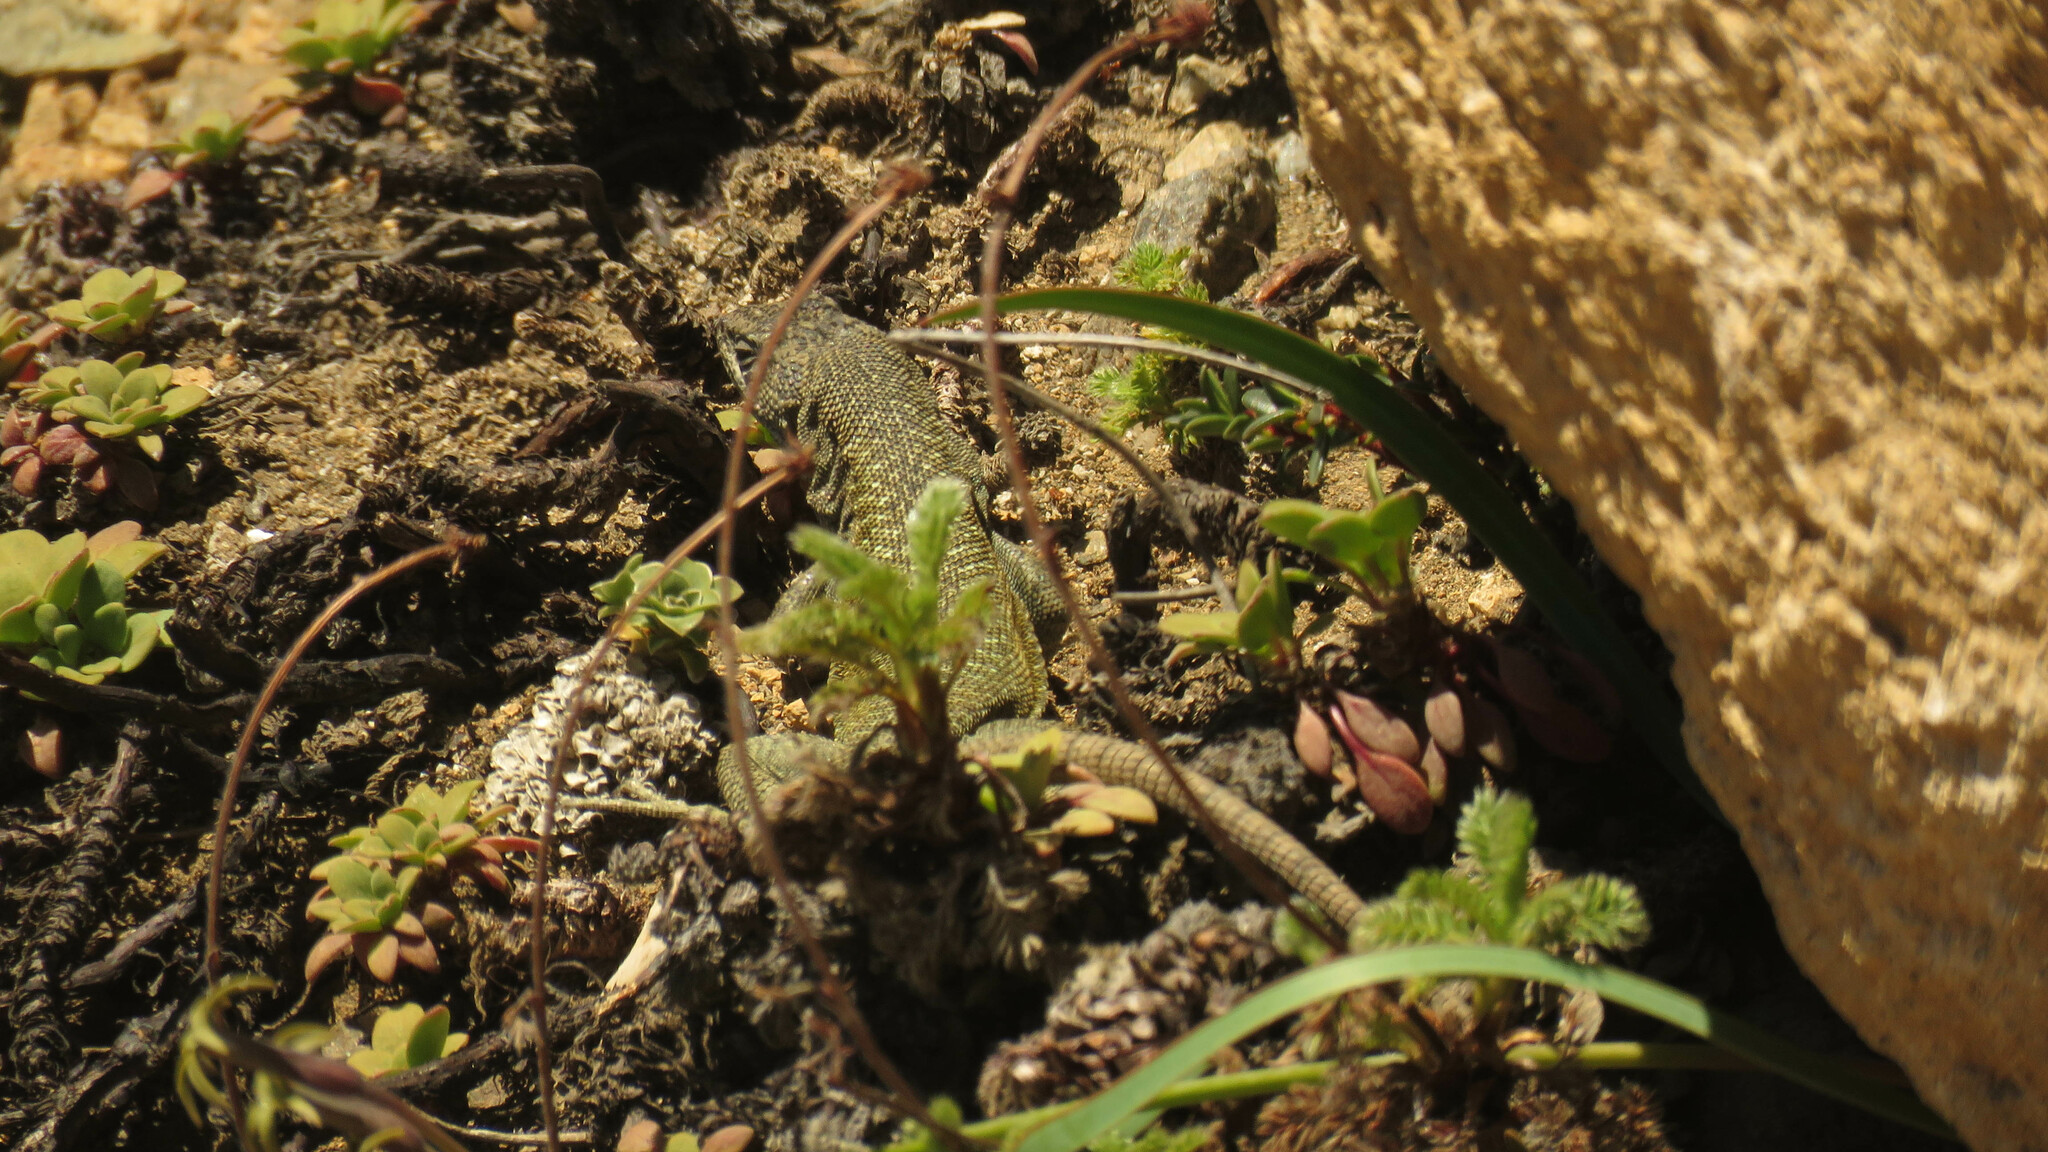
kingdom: Animalia
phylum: Chordata
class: Squamata
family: Liolaemidae
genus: Liolaemus
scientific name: Liolaemus elongatus
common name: Elongate tree iguana
